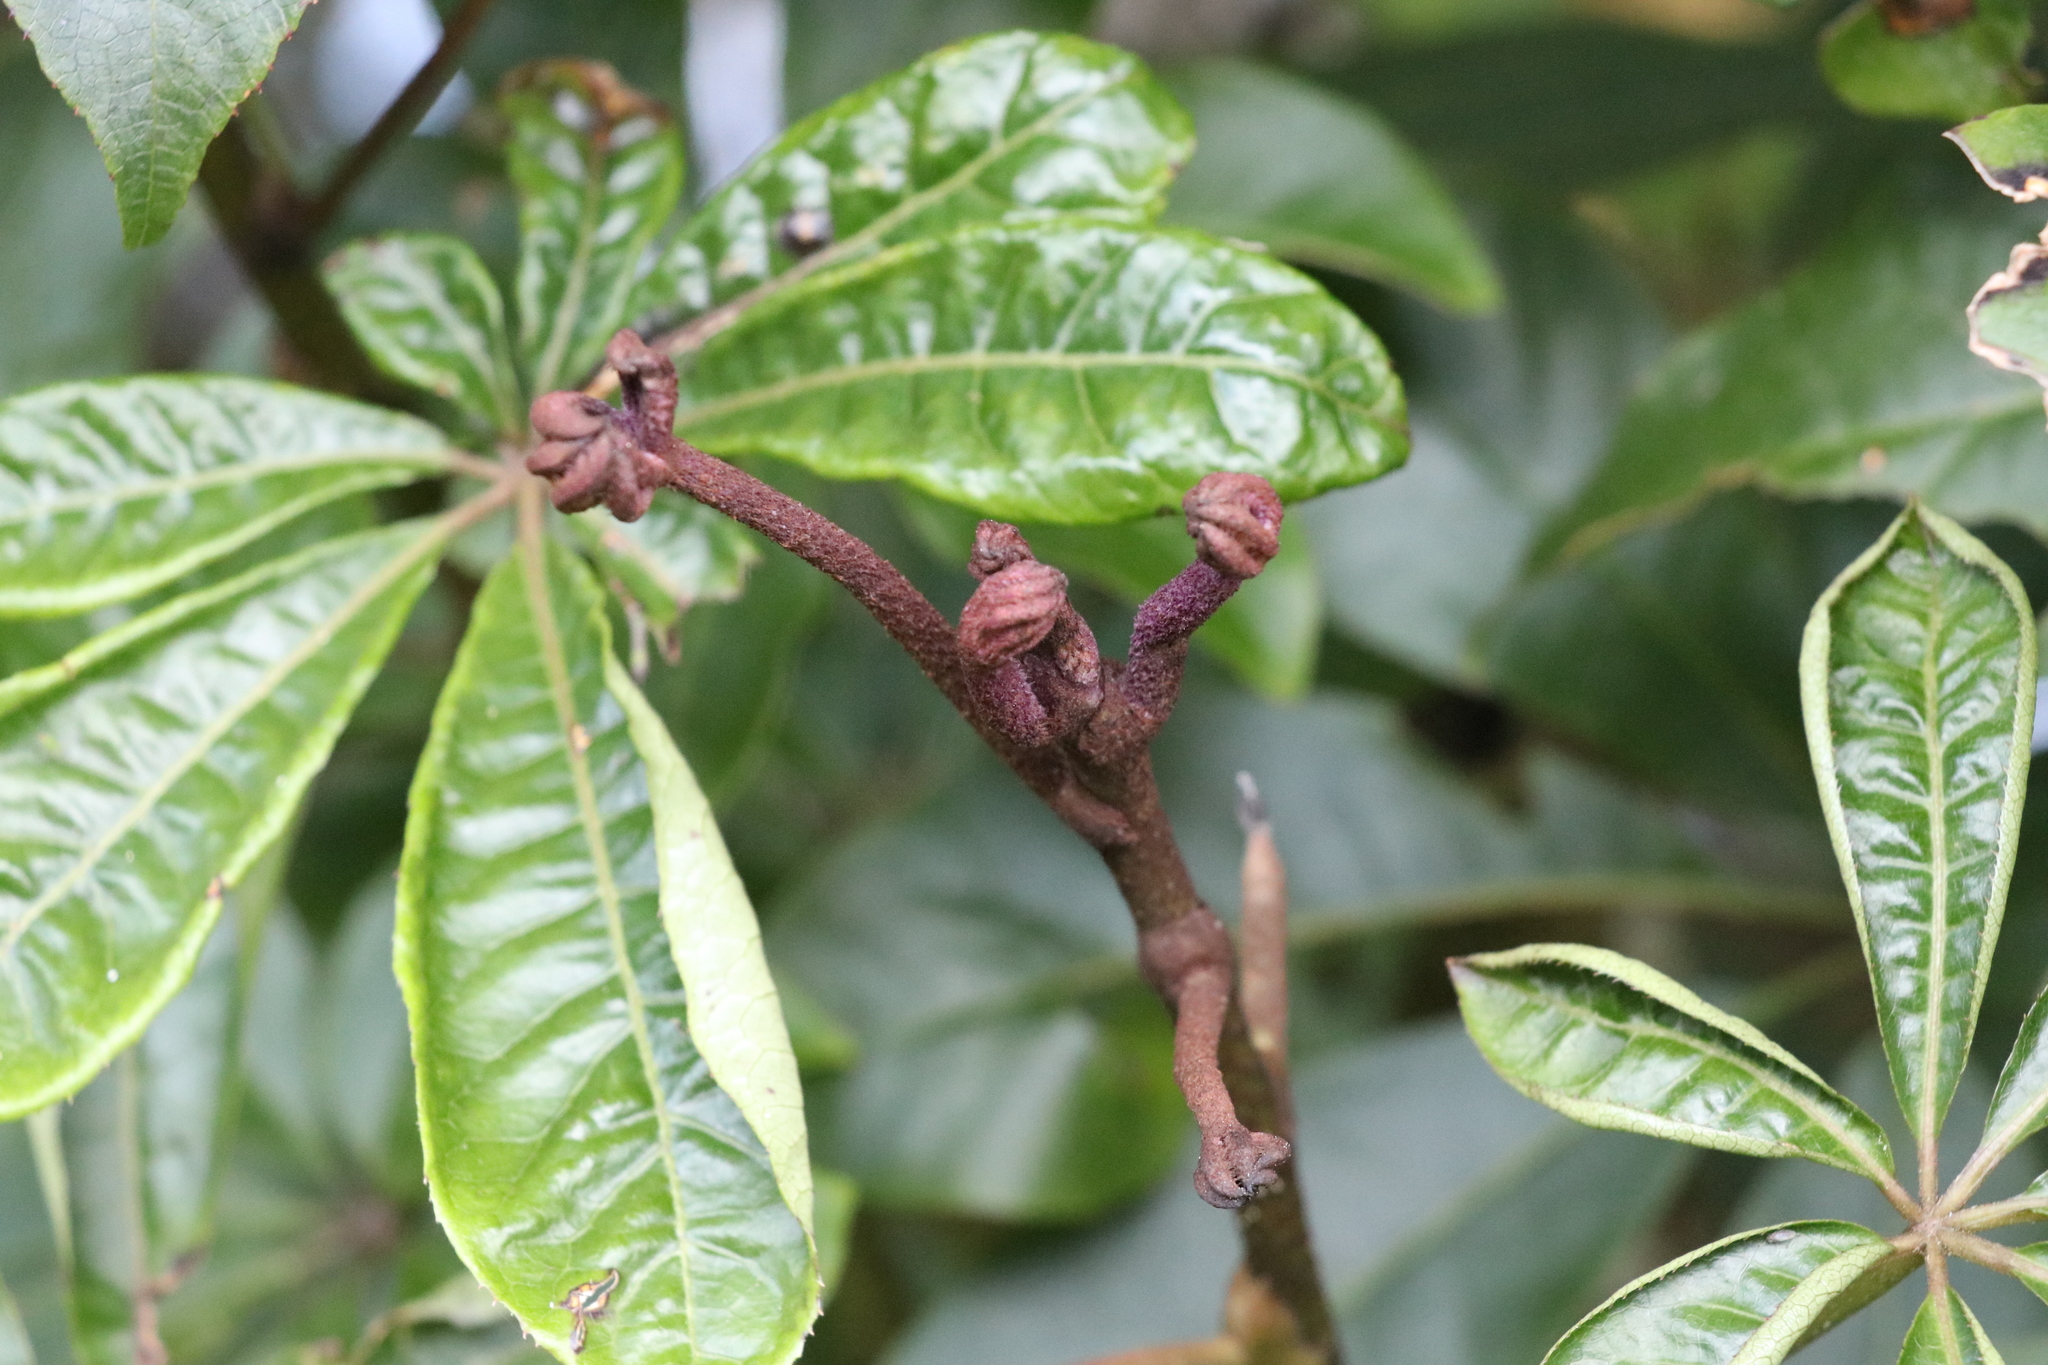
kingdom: Plantae
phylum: Tracheophyta
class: Magnoliopsida
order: Apiales
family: Araliaceae
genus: Schefflera
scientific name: Schefflera digitata
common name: Pate
